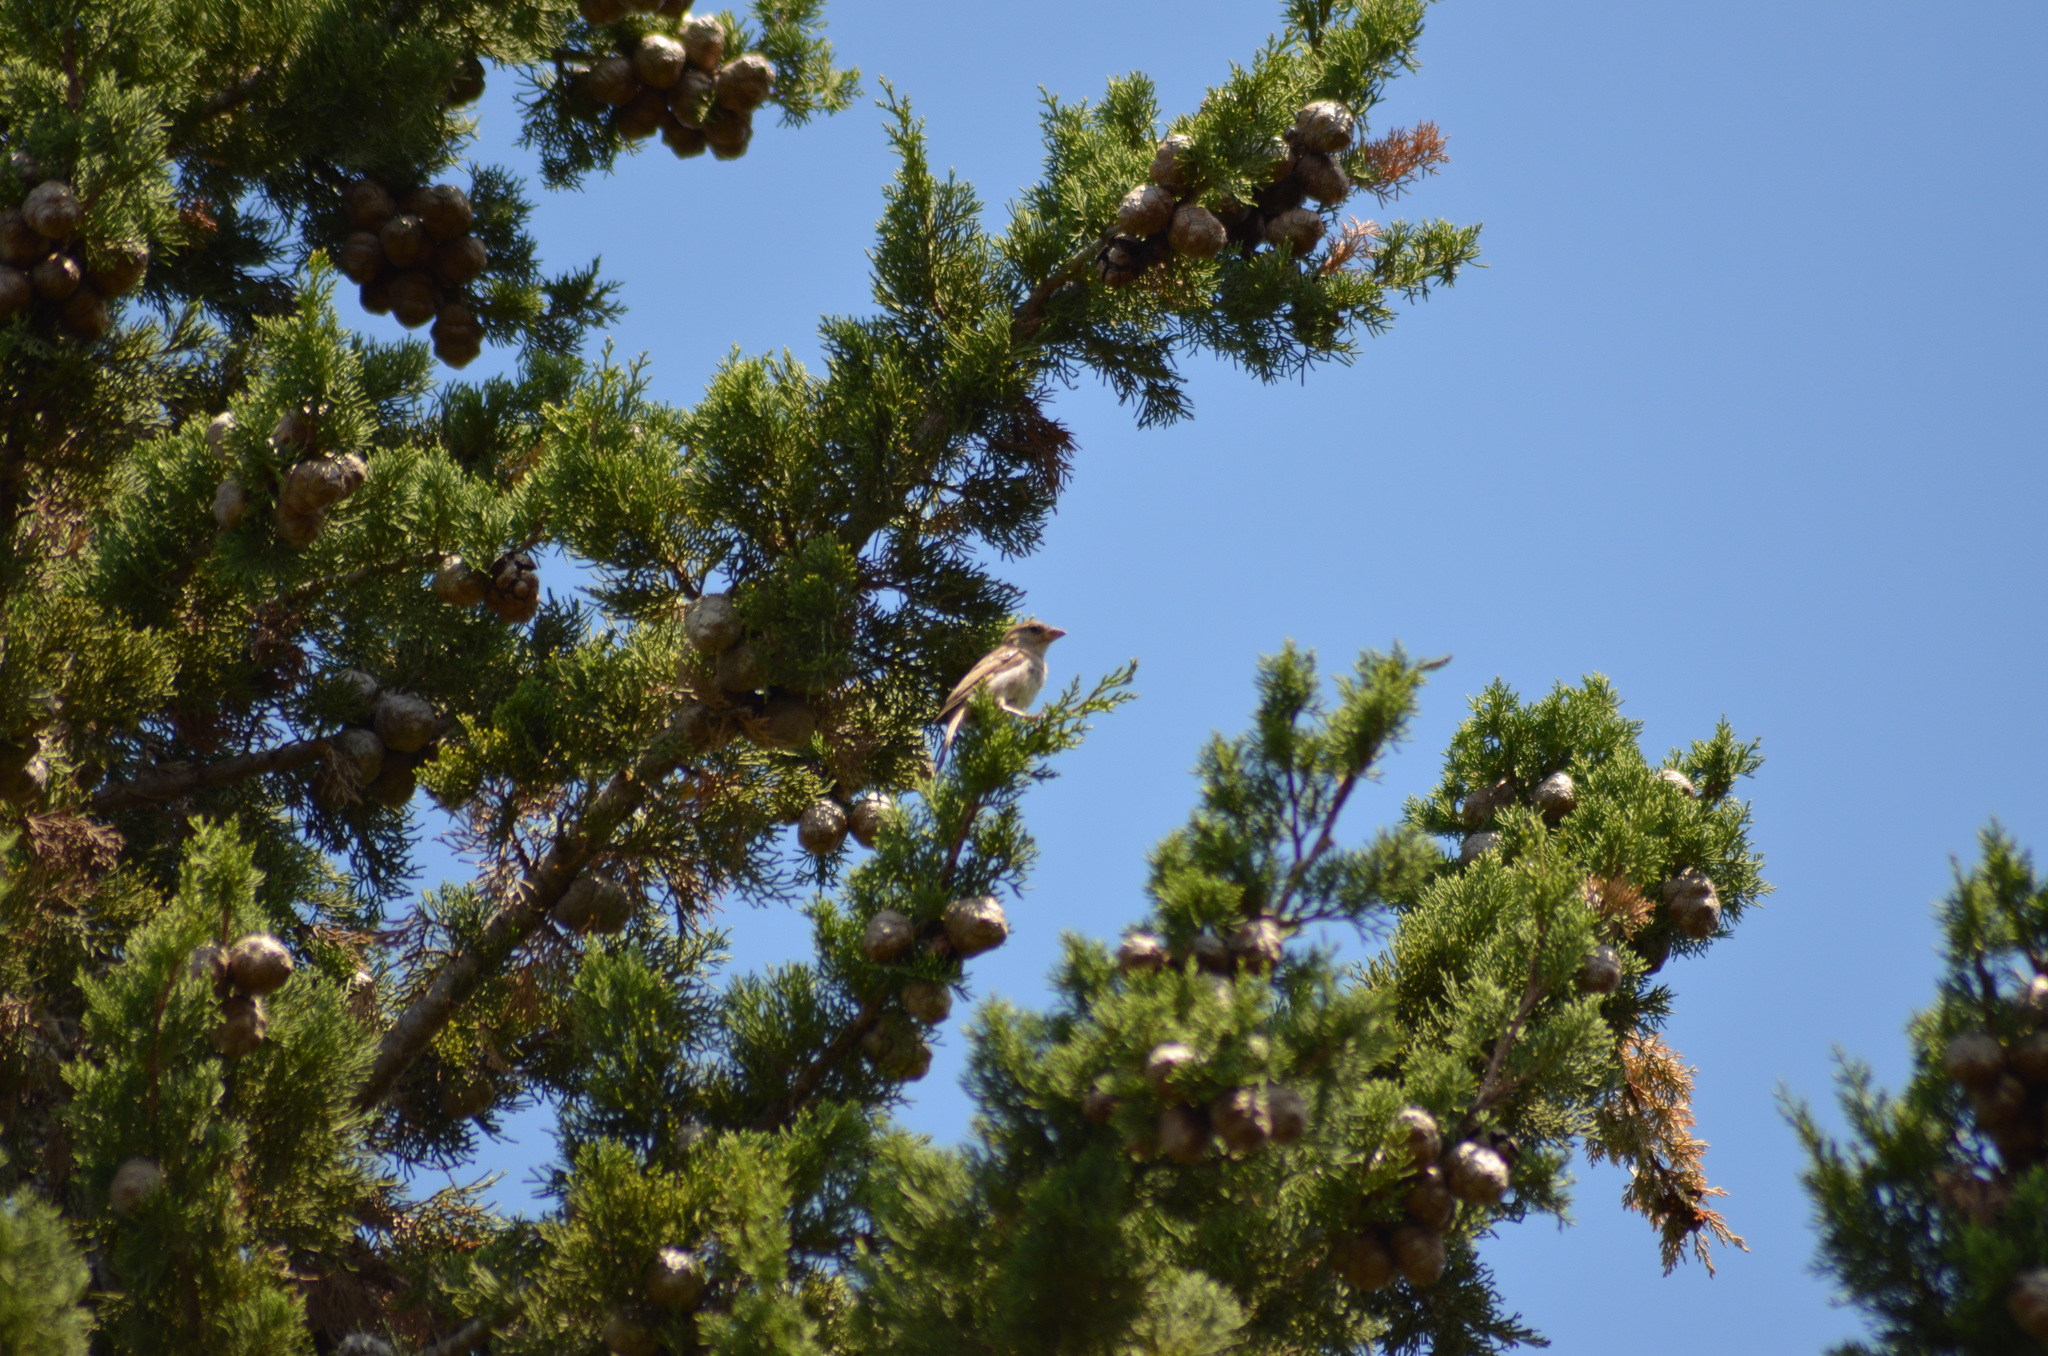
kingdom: Animalia
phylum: Chordata
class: Aves
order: Passeriformes
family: Passeridae
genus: Passer
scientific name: Passer domesticus
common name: House sparrow
